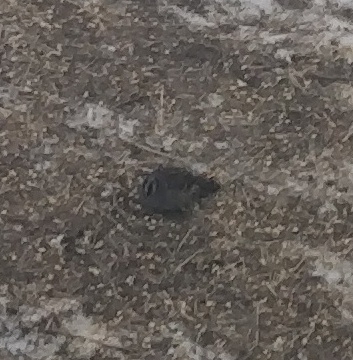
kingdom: Animalia
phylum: Chordata
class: Aves
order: Passeriformes
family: Passerellidae
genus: Zonotrichia
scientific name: Zonotrichia leucophrys
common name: White-crowned sparrow
